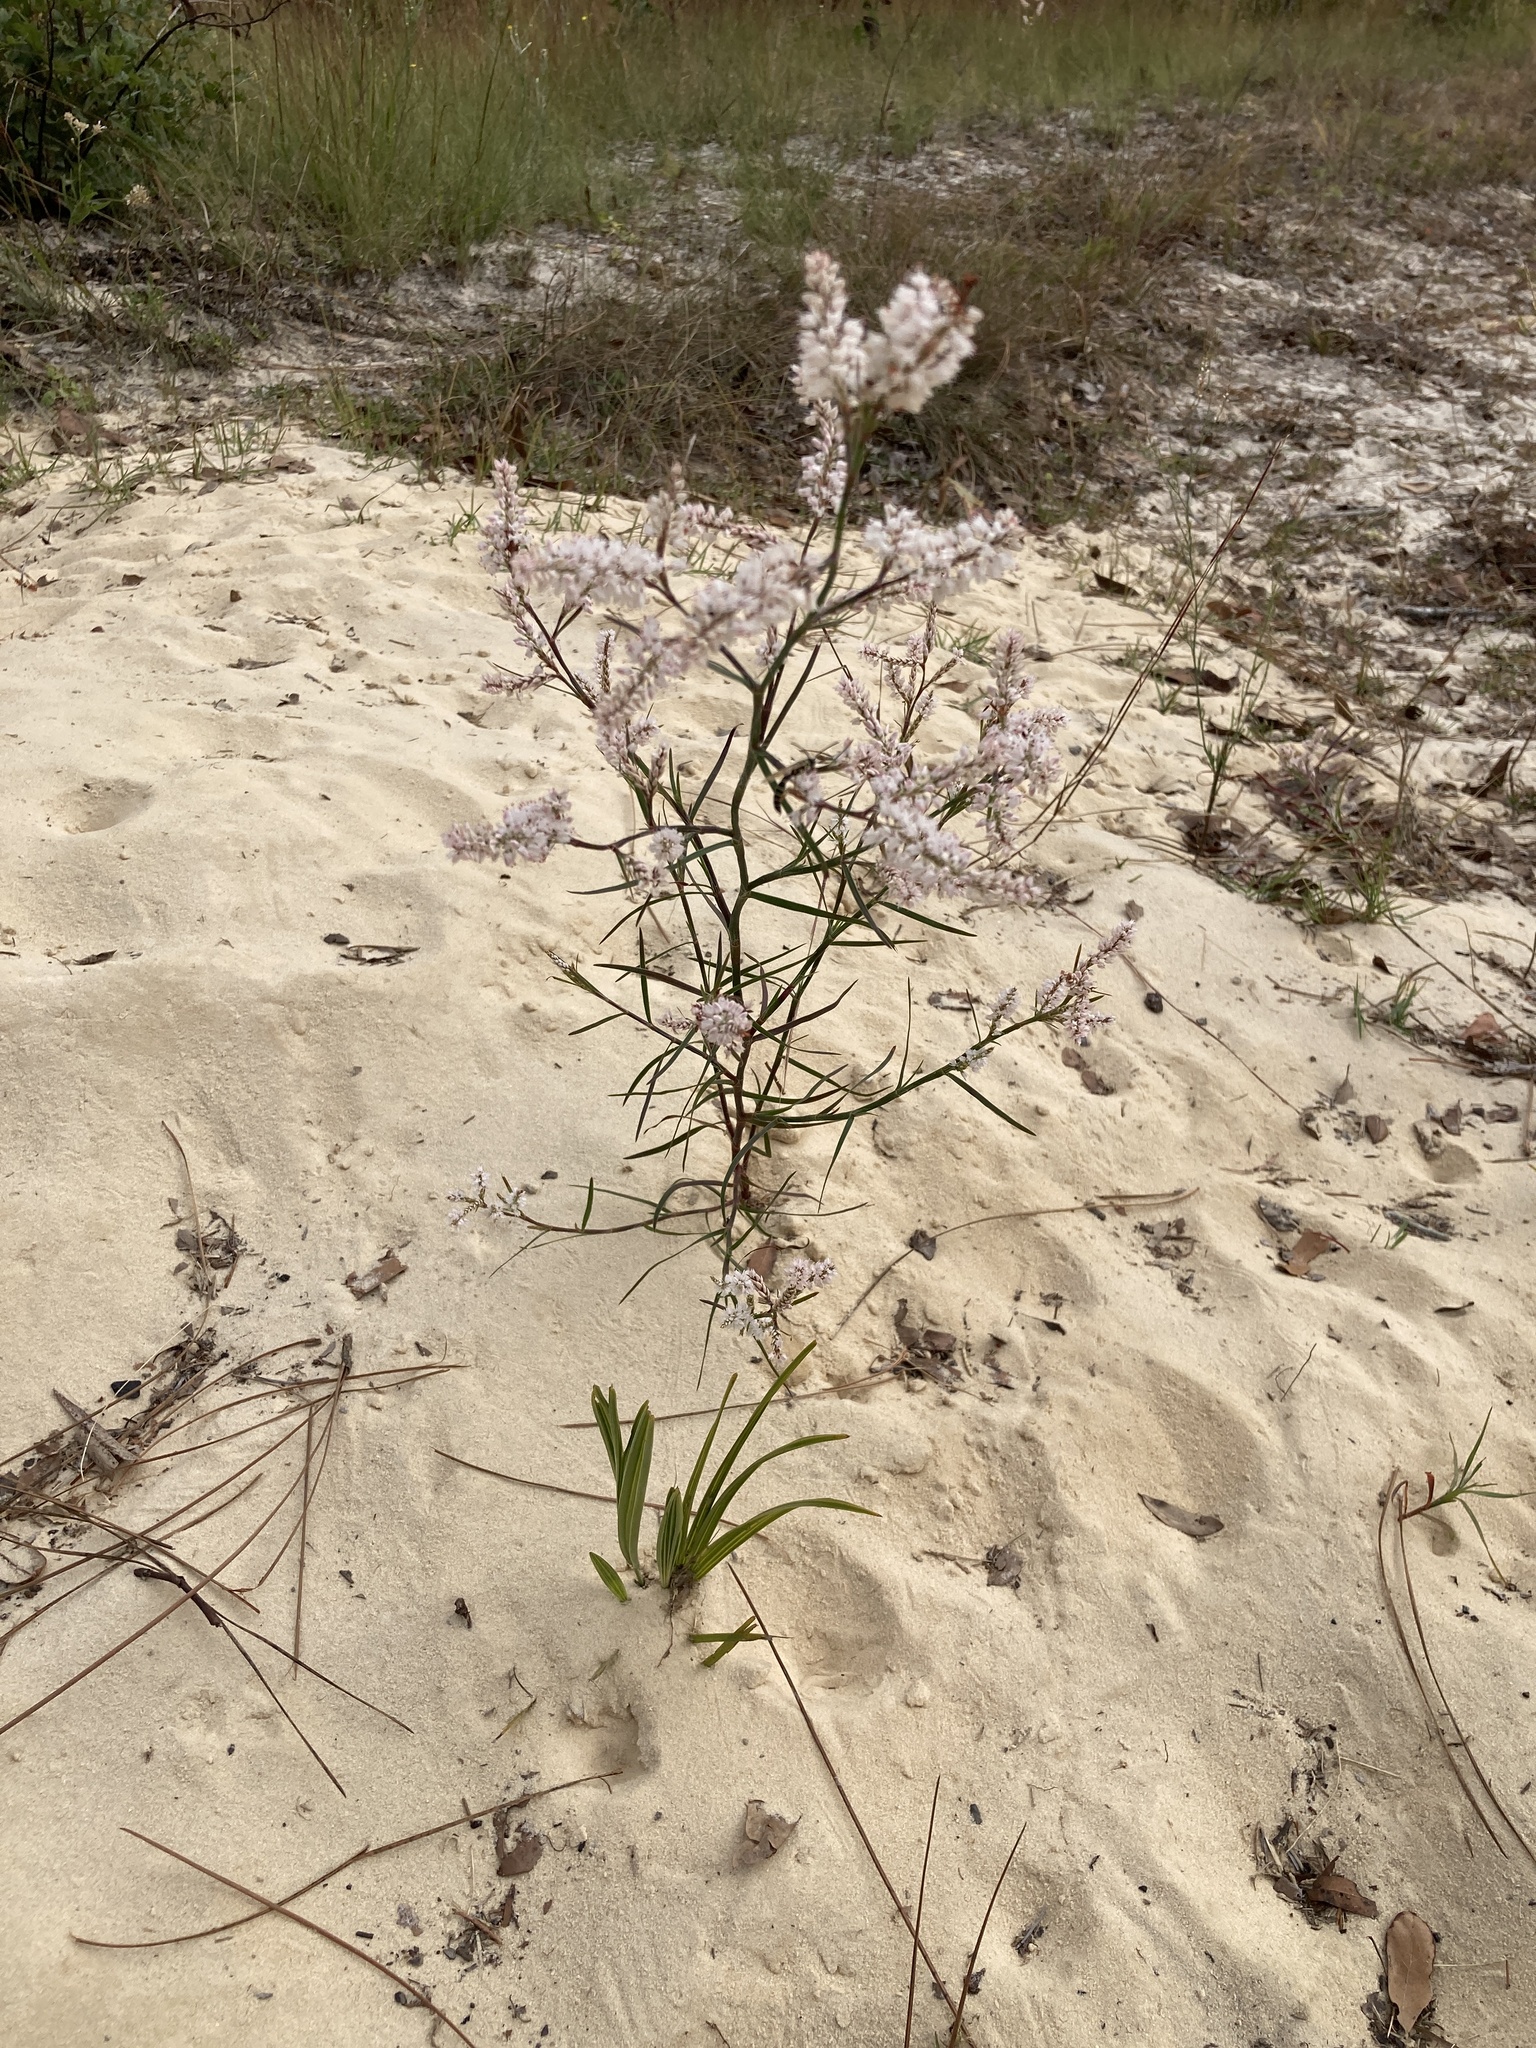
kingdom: Plantae
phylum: Tracheophyta
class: Magnoliopsida
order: Caryophyllales
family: Polygonaceae
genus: Polygonella
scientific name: Polygonella robusta
